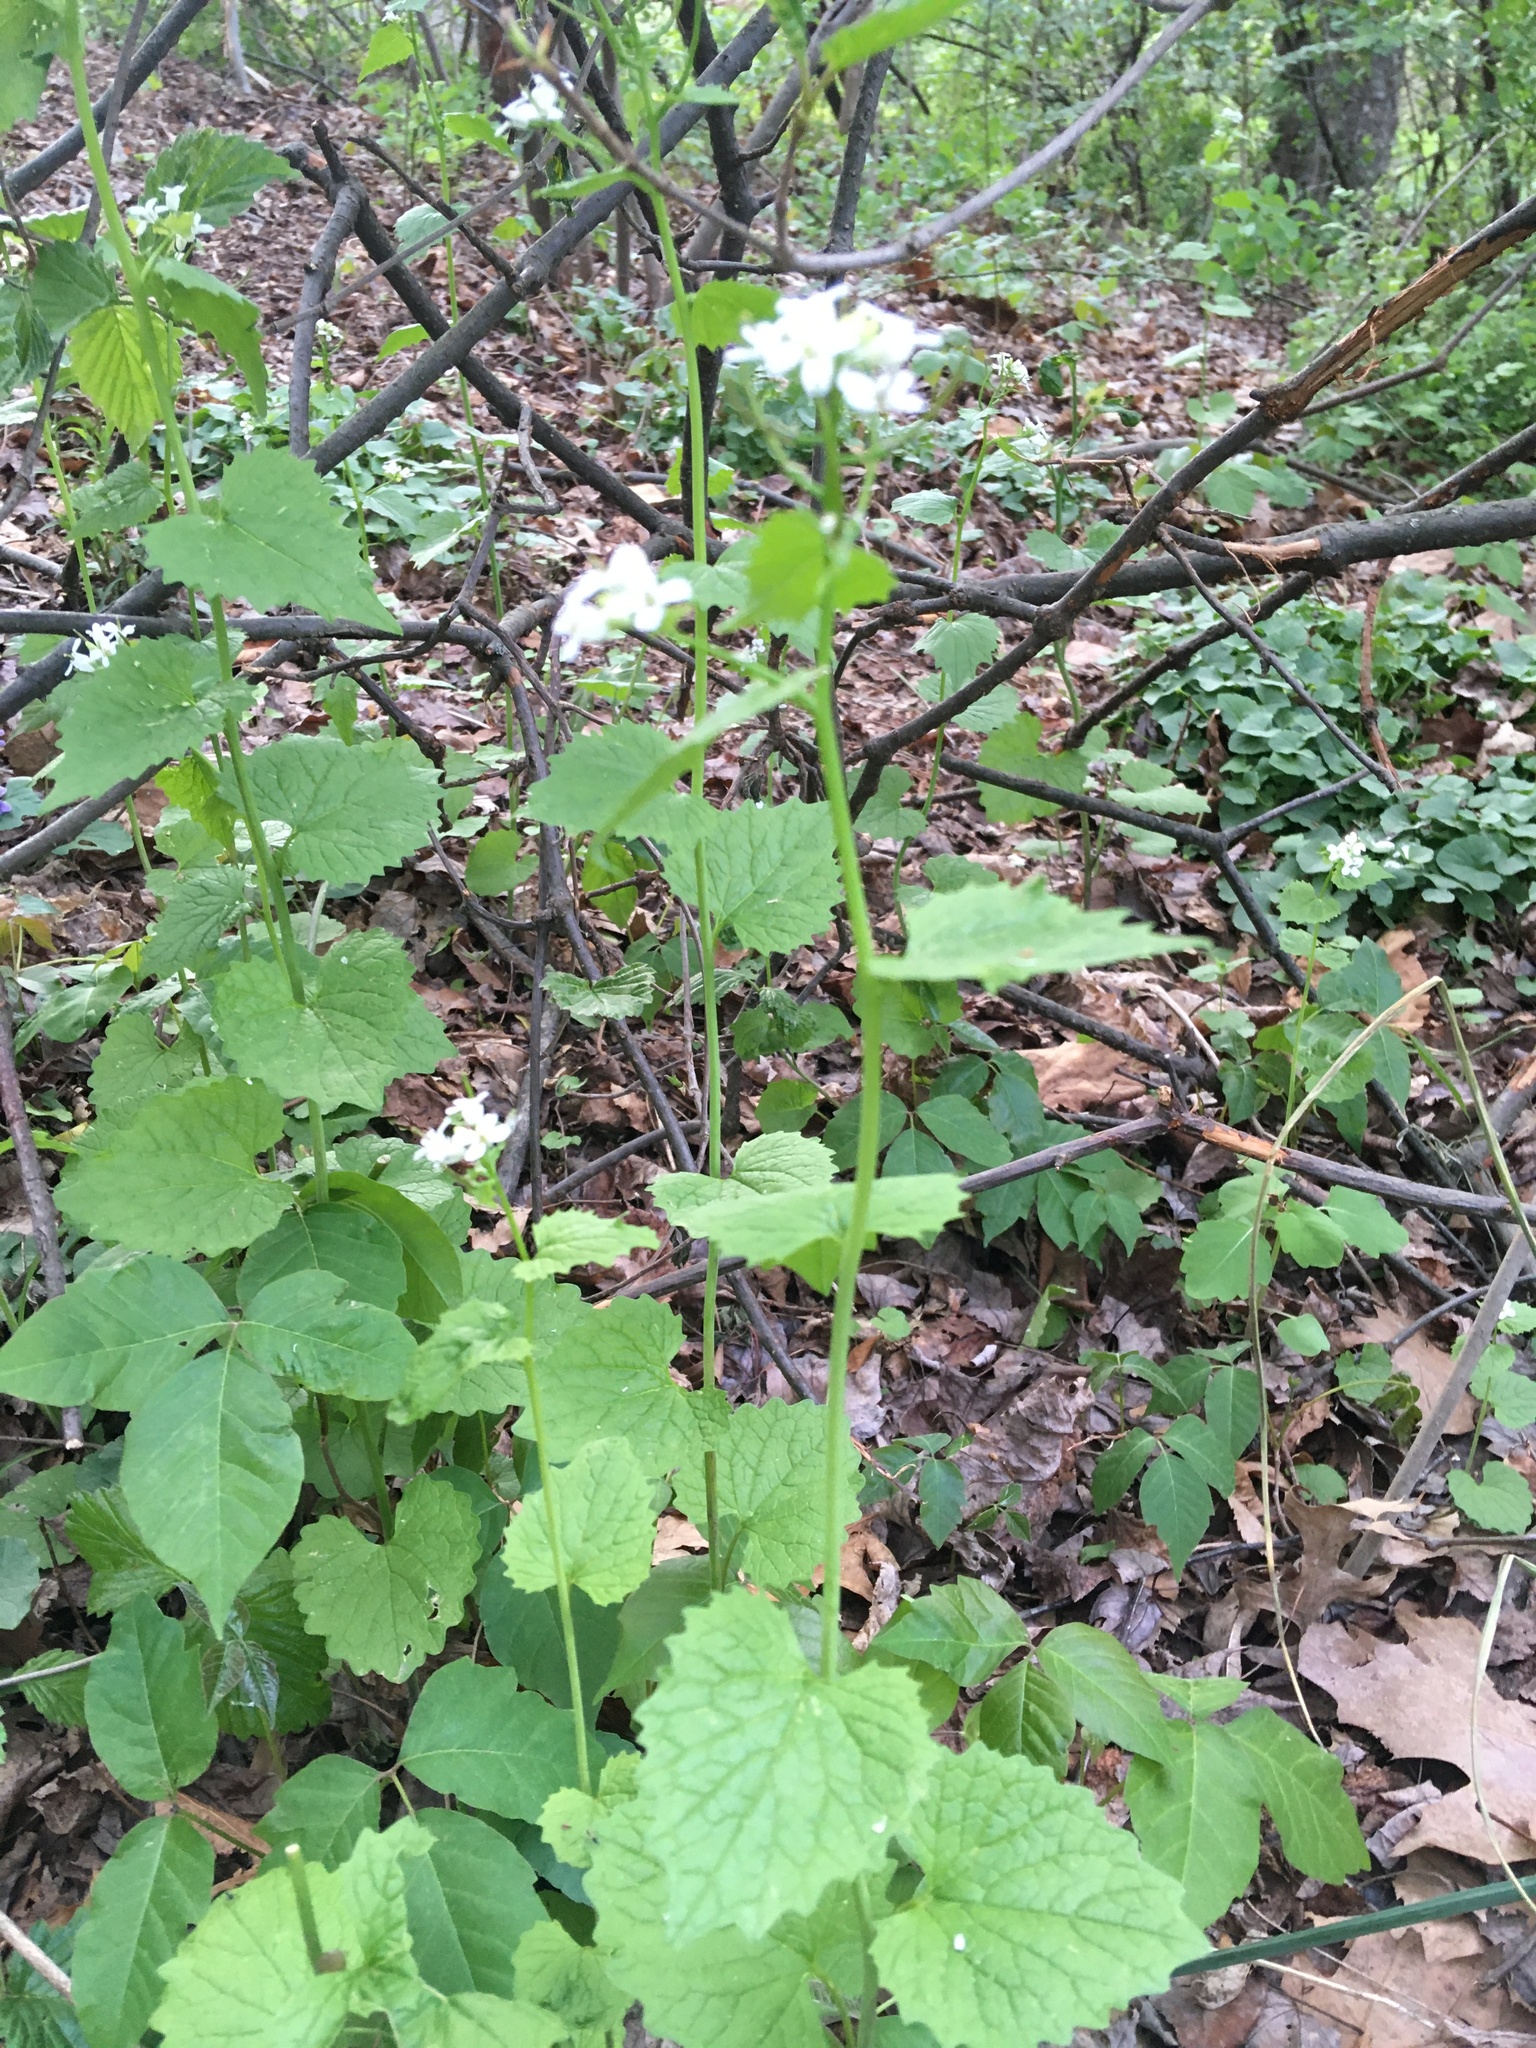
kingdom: Plantae
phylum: Tracheophyta
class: Magnoliopsida
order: Brassicales
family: Brassicaceae
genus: Alliaria
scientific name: Alliaria petiolata
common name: Garlic mustard
